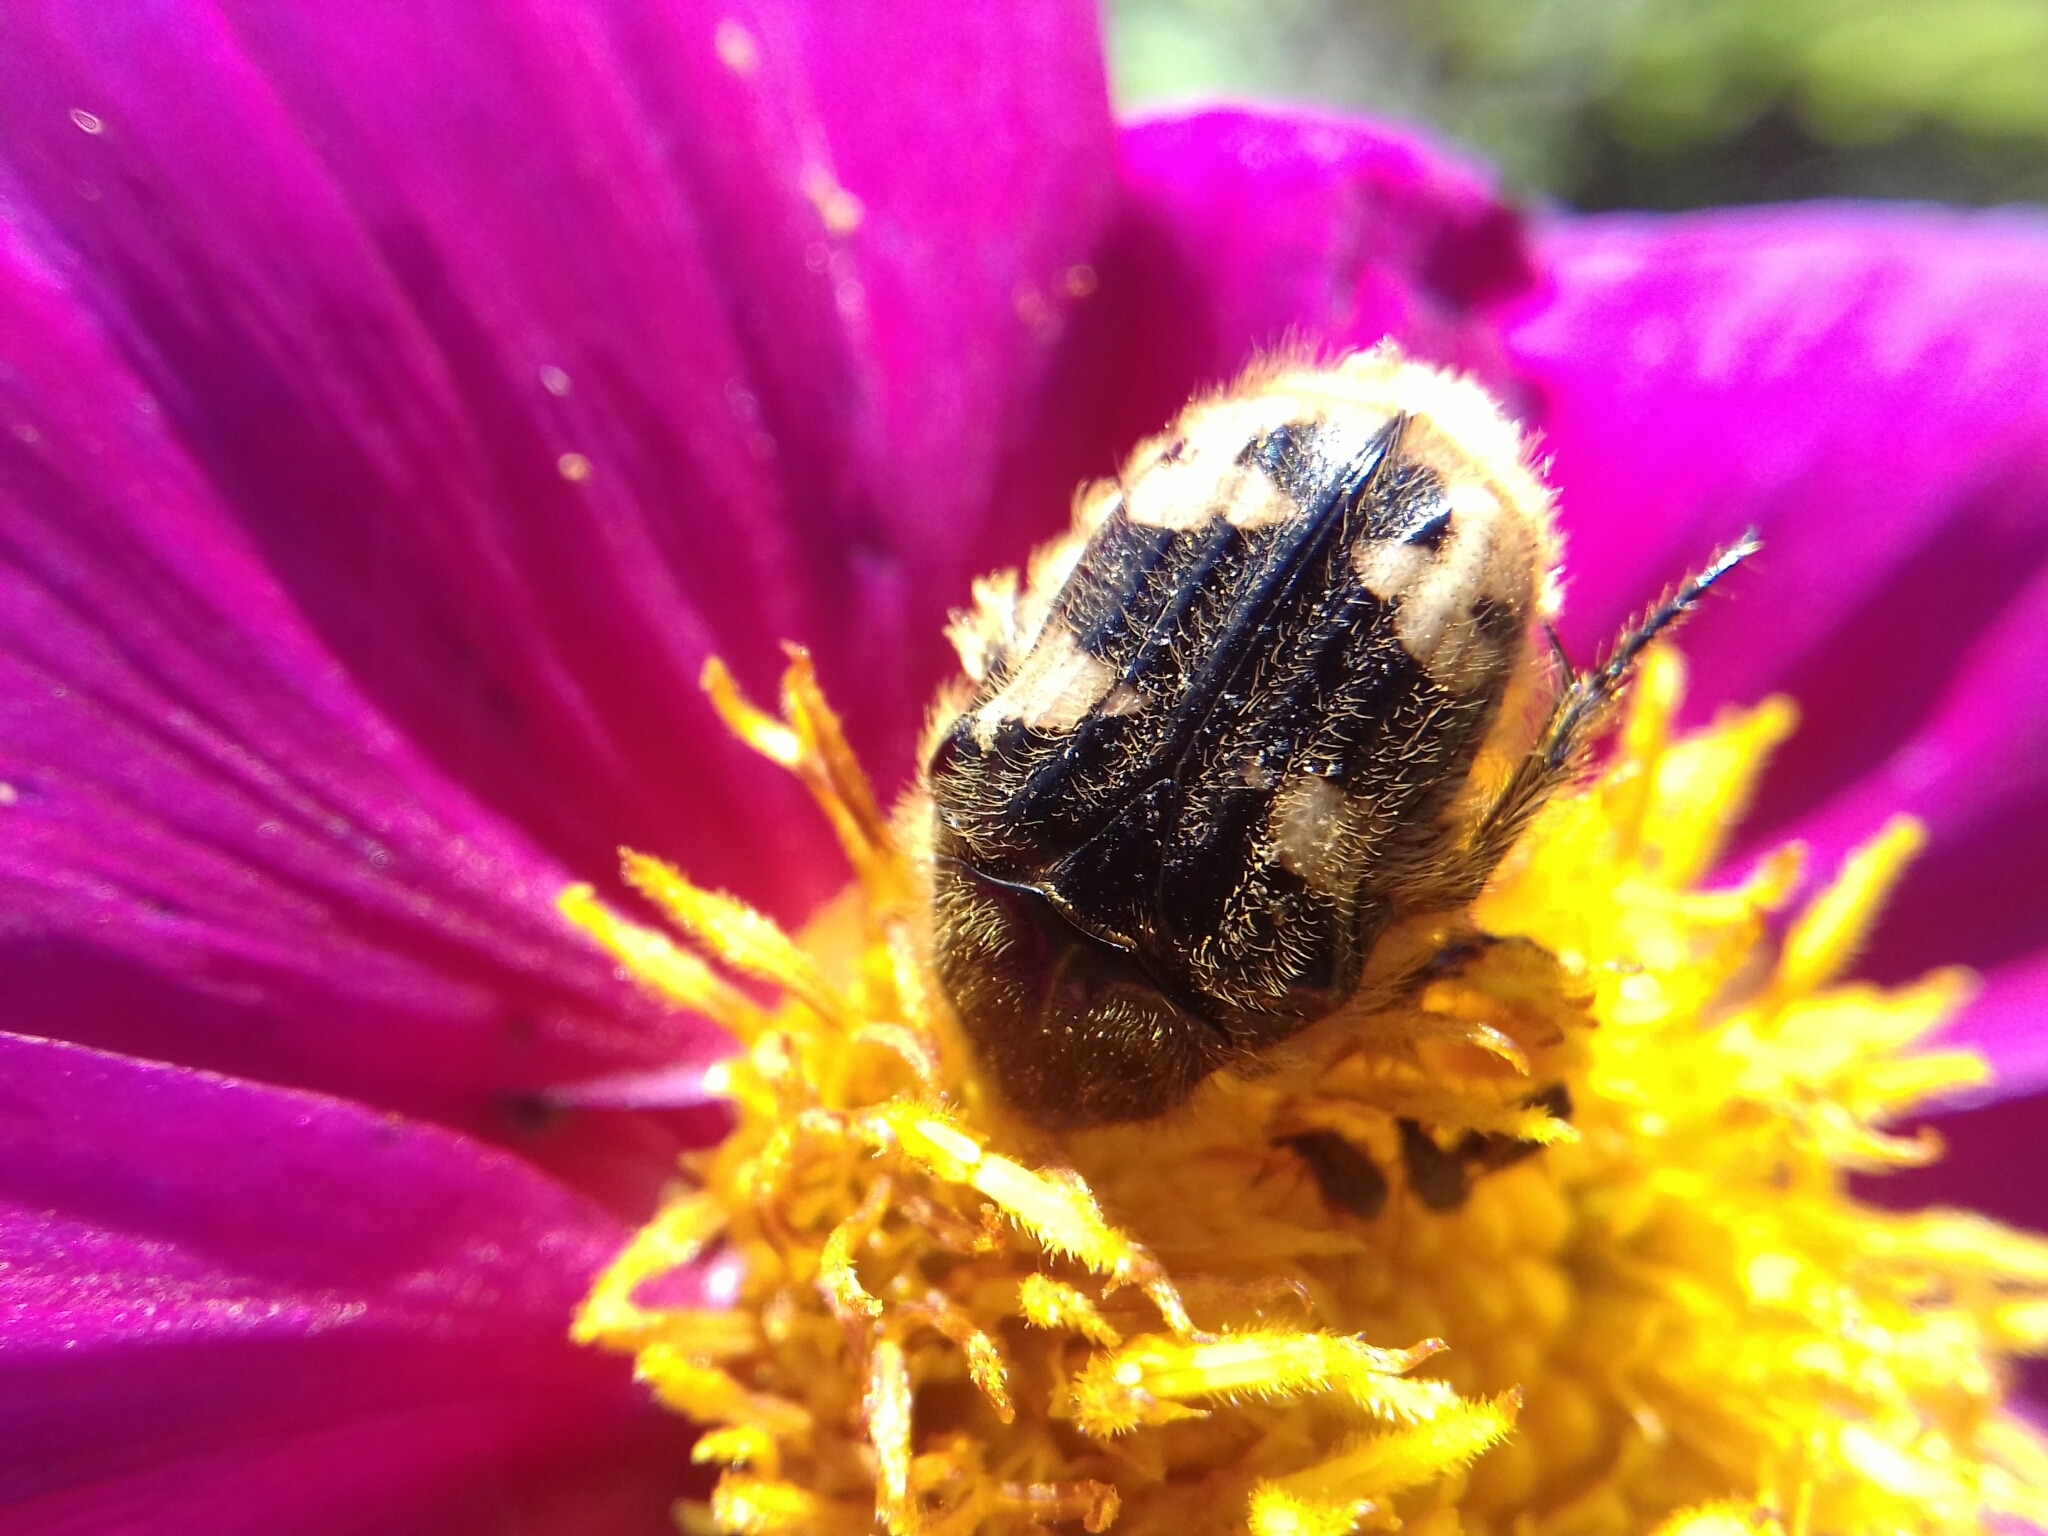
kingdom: Animalia
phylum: Arthropoda
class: Insecta
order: Coleoptera
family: Scarabaeidae
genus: Euphoria
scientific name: Euphoria basalis
